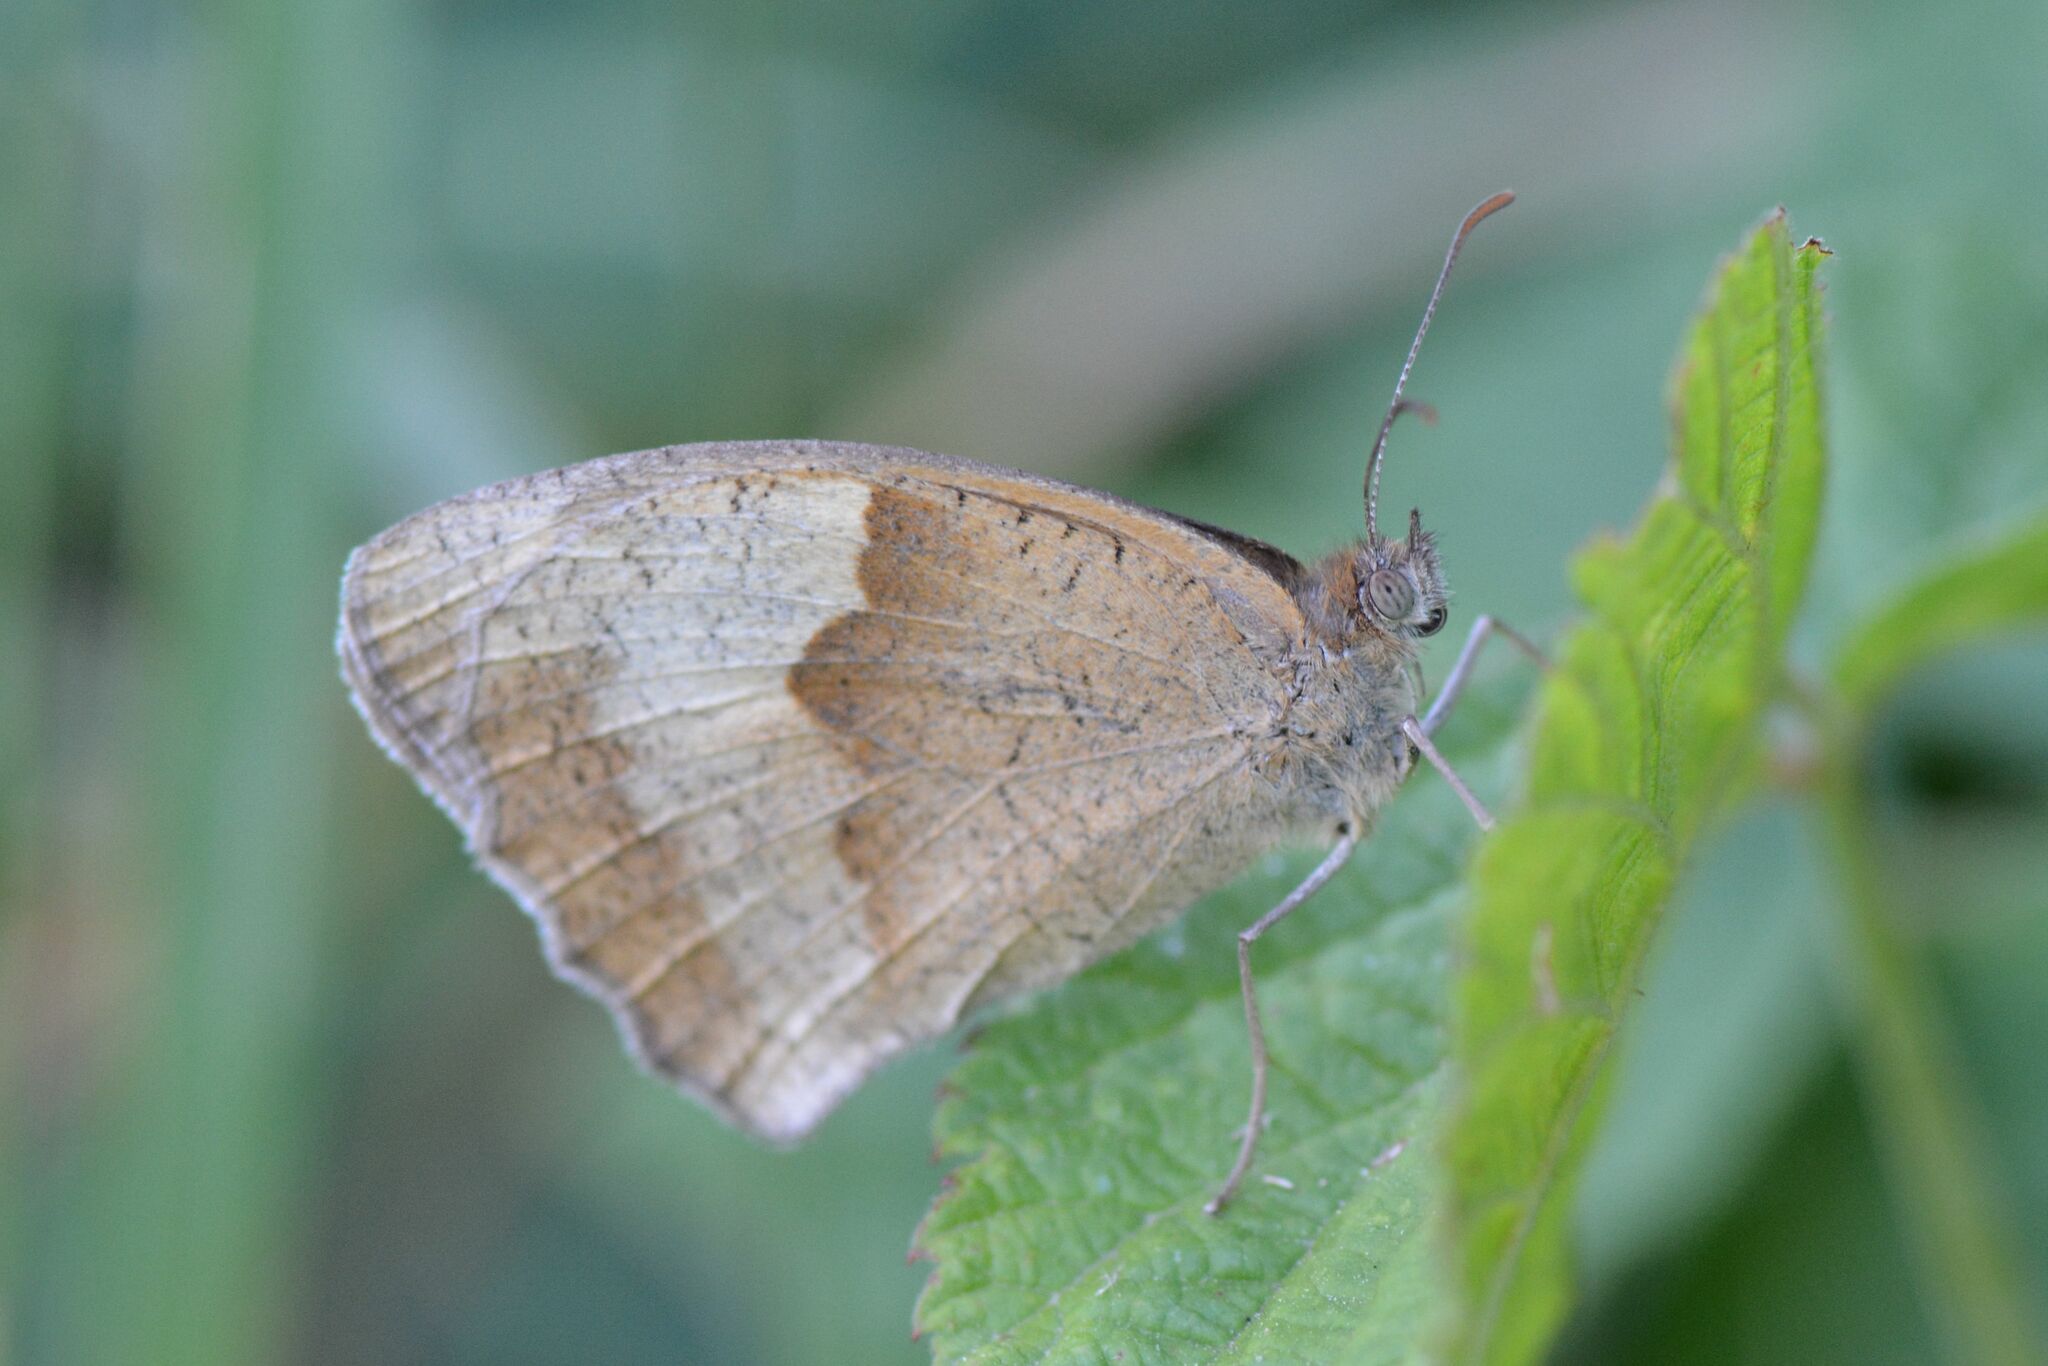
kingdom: Animalia
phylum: Arthropoda
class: Insecta
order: Lepidoptera
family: Nymphalidae
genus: Maniola
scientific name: Maniola jurtina
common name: Meadow brown
